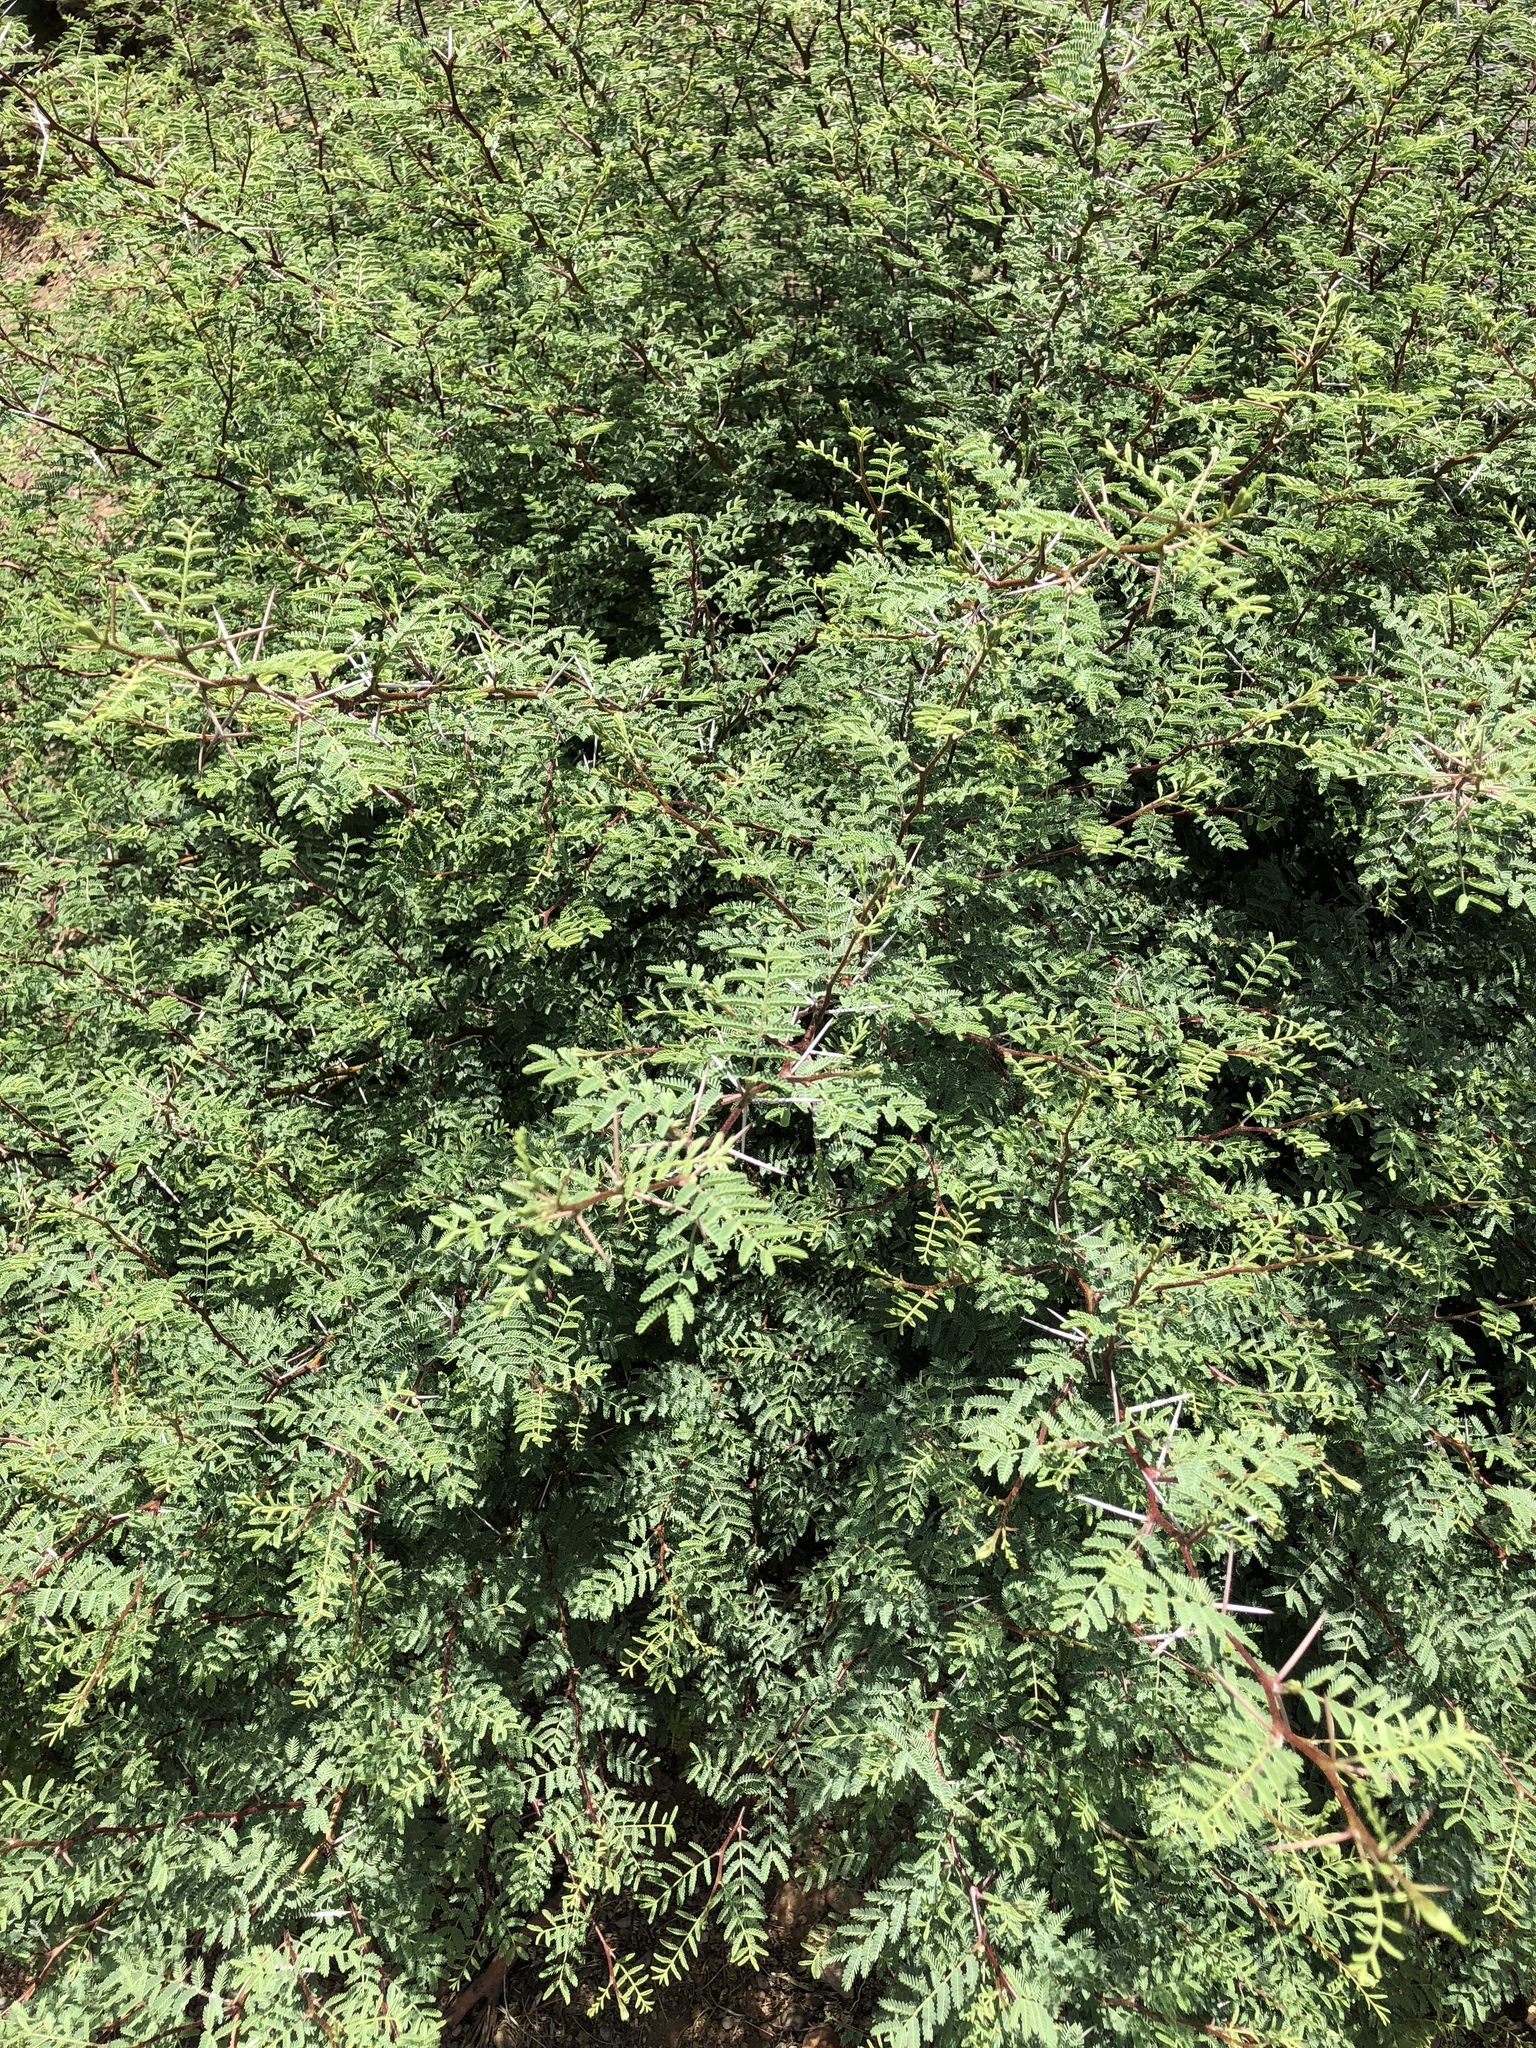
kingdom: Plantae
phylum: Tracheophyta
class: Magnoliopsida
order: Fabales
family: Fabaceae
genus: Vachellia
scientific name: Vachellia constricta
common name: Mescat acacia
